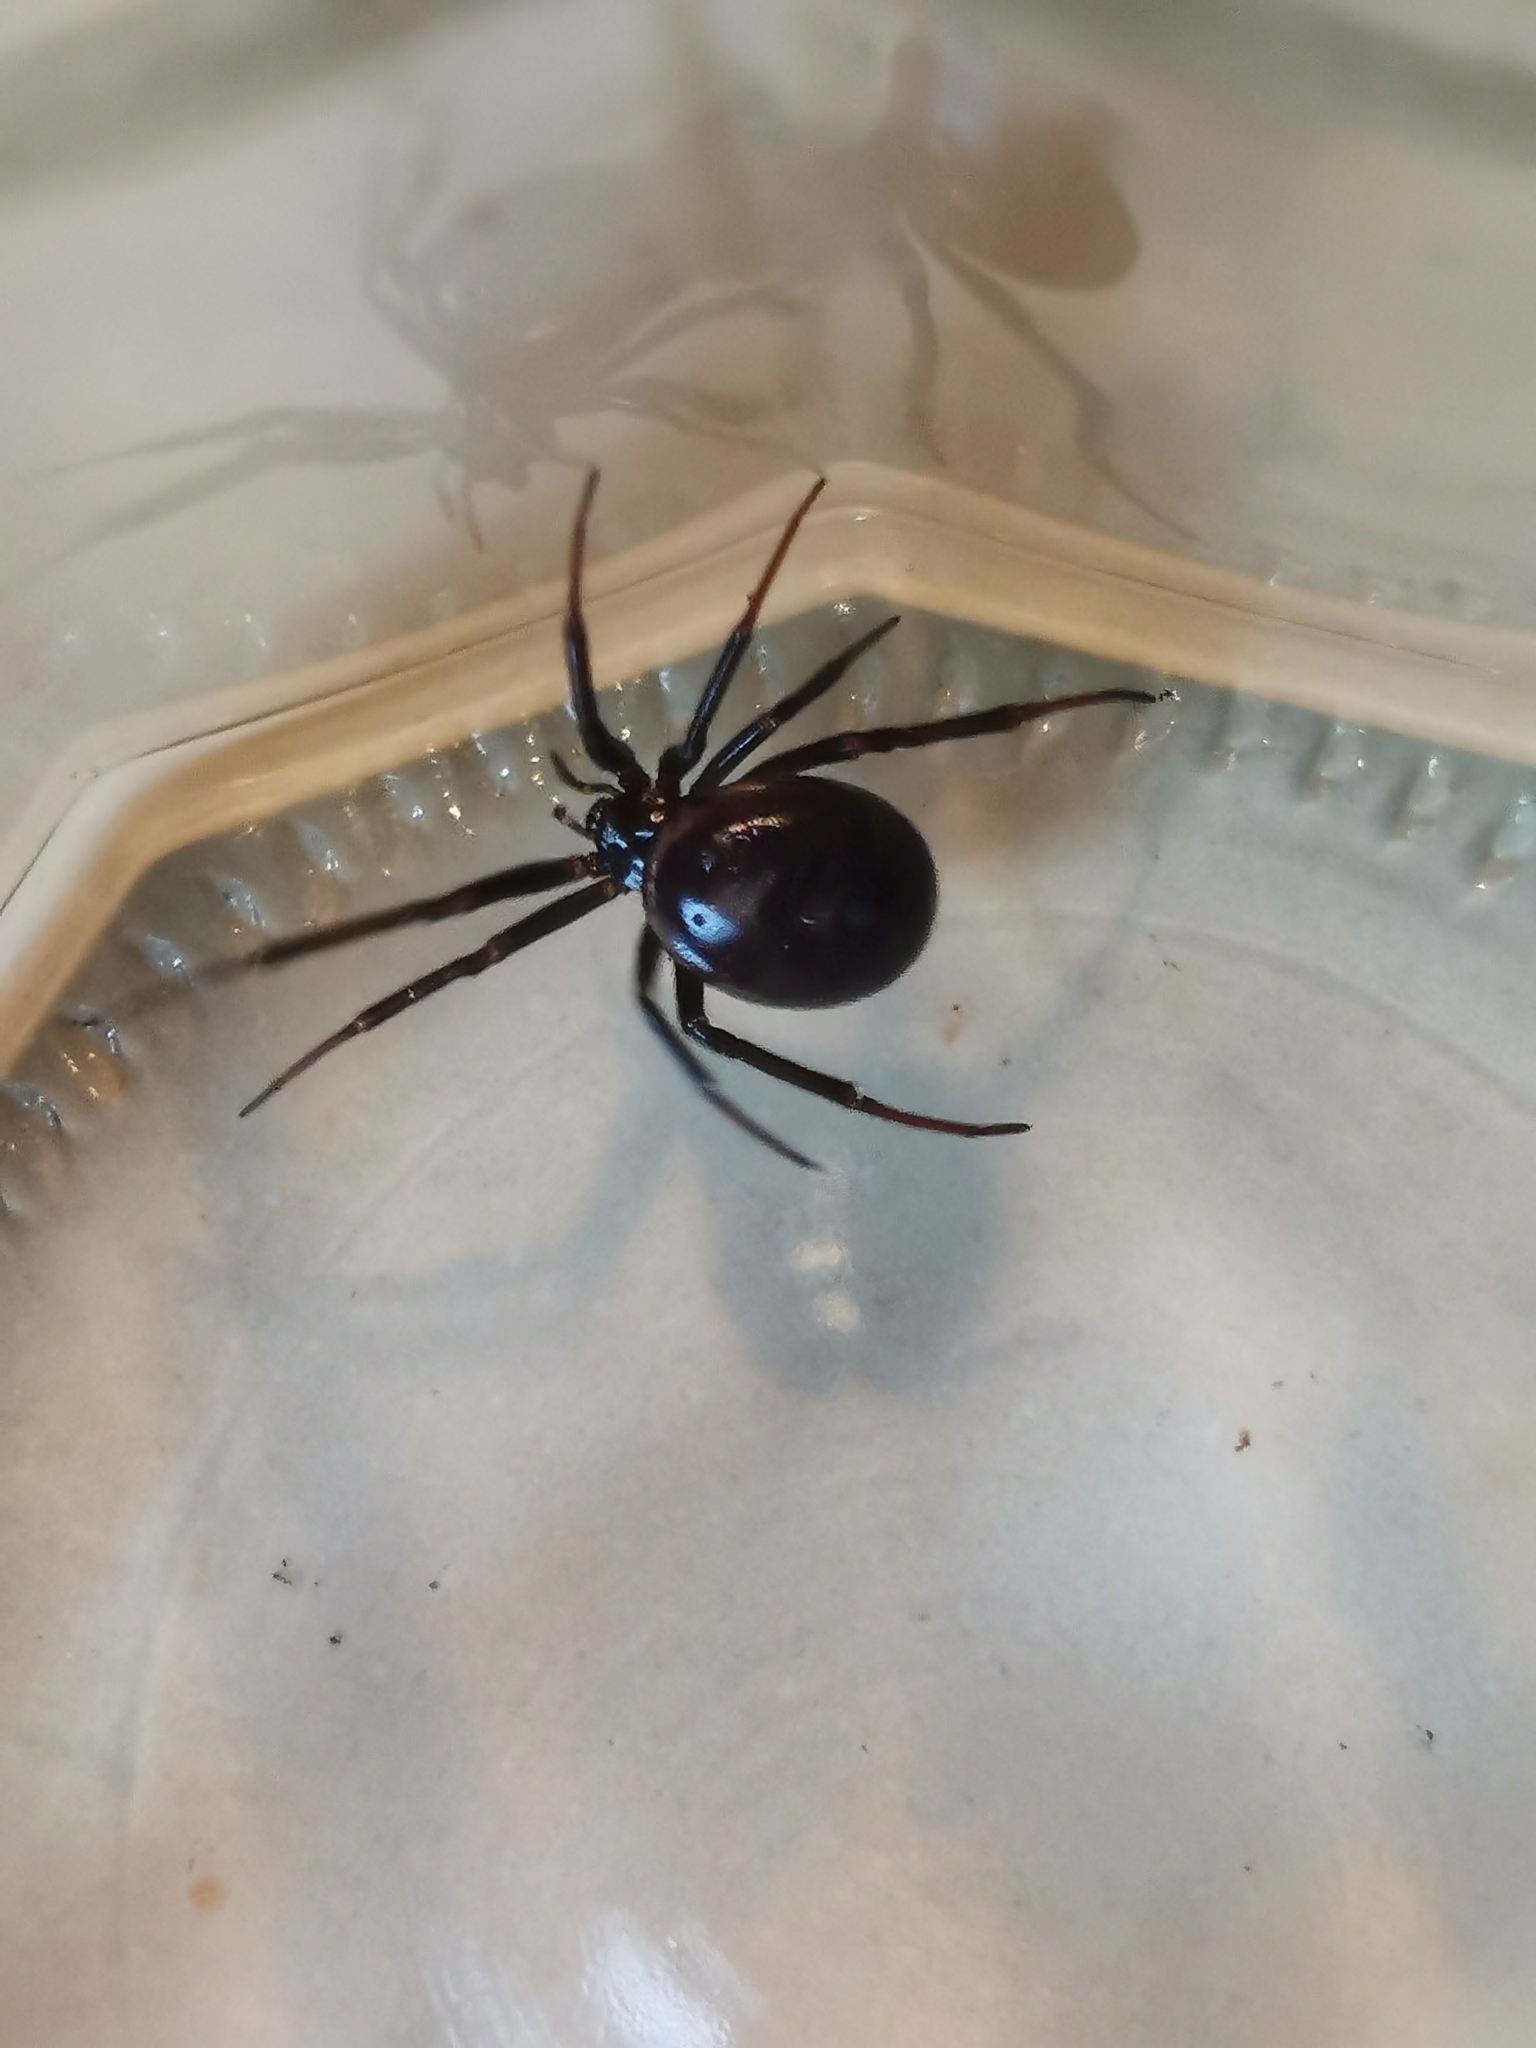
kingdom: Animalia
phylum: Arthropoda
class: Arachnida
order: Araneae
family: Theridiidae
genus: Steatoda
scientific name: Steatoda grossa
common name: False black widow
